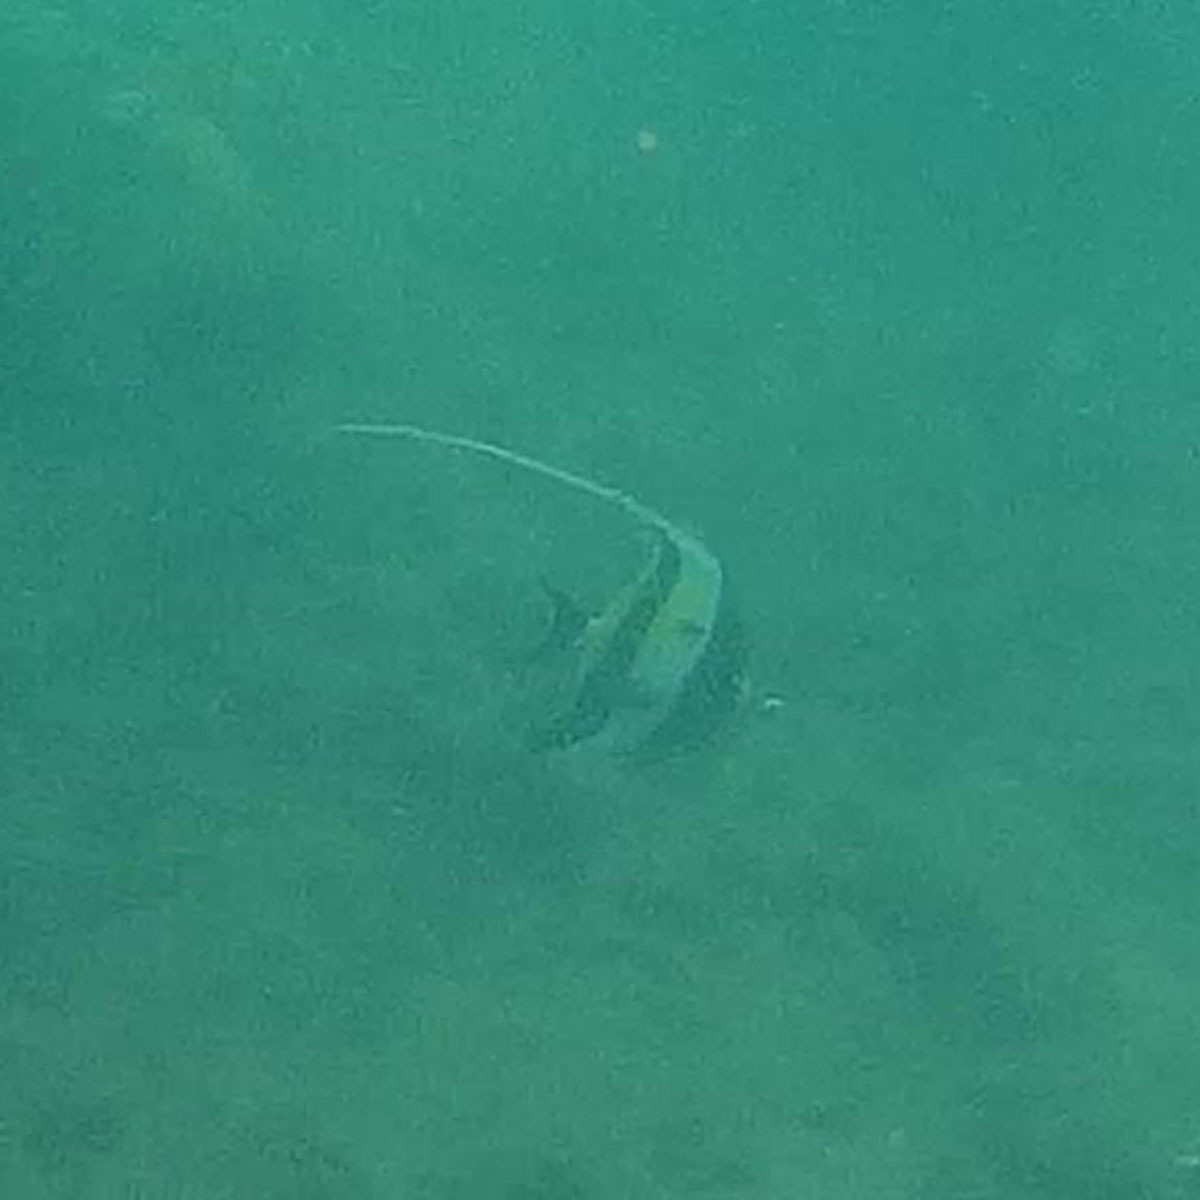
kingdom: Animalia
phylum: Chordata
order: Perciformes
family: Zanclidae
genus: Zanclus
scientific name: Zanclus cornutus
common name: Moorish idol
